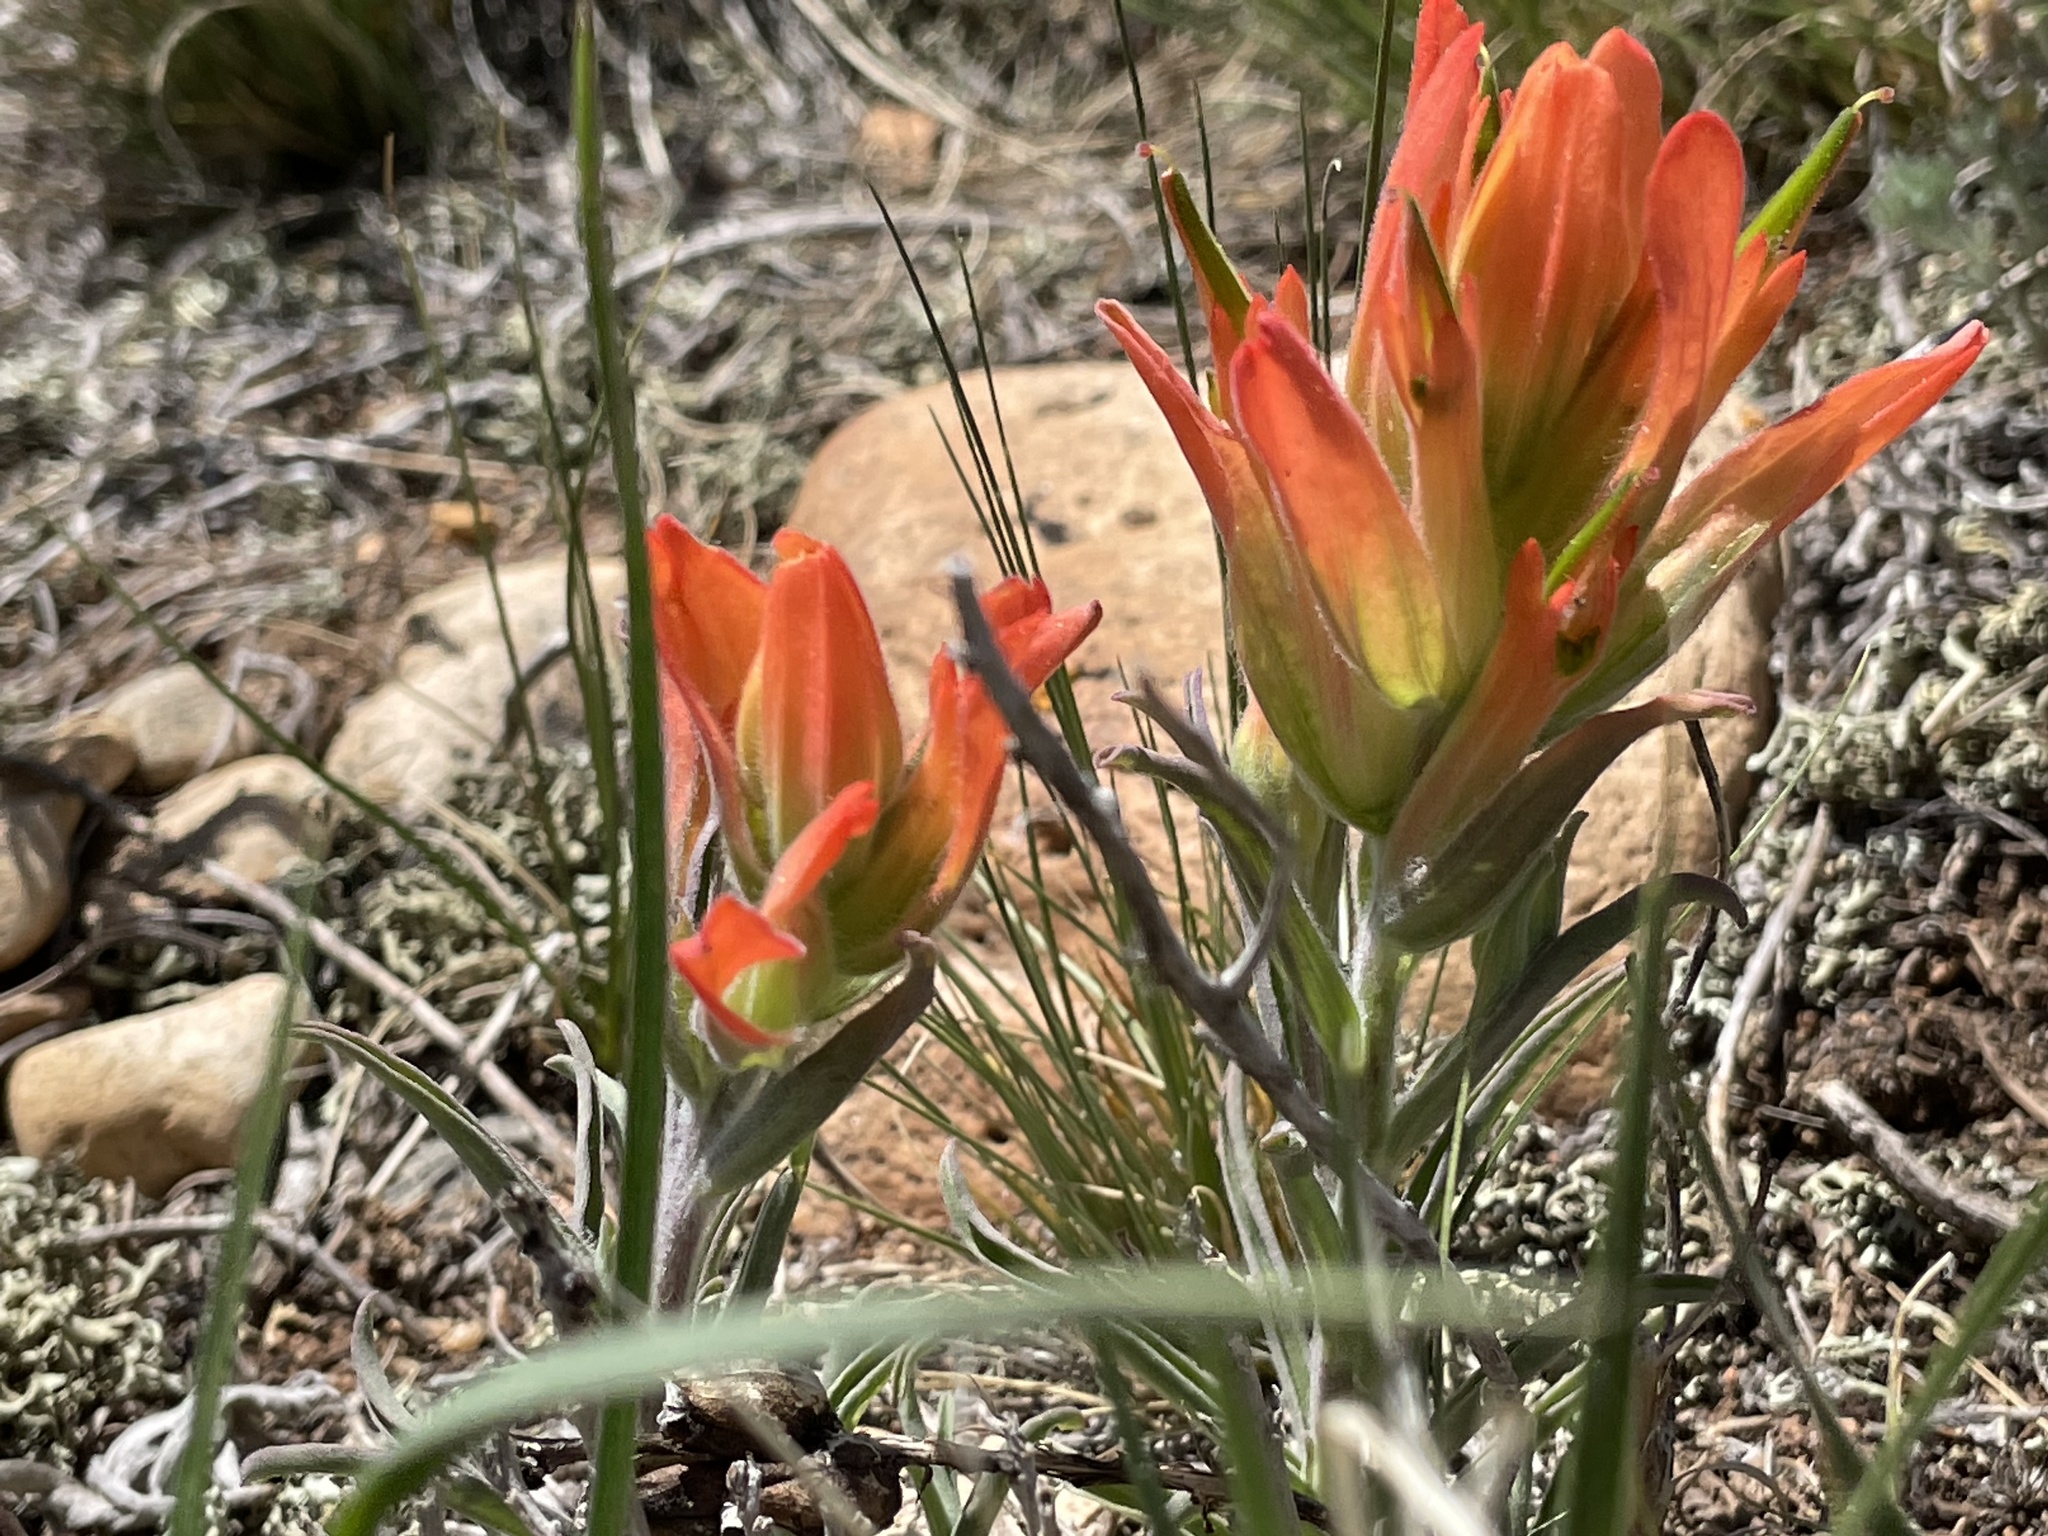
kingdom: Plantae
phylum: Tracheophyta
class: Magnoliopsida
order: Lamiales
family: Orobanchaceae
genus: Castilleja
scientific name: Castilleja integra
